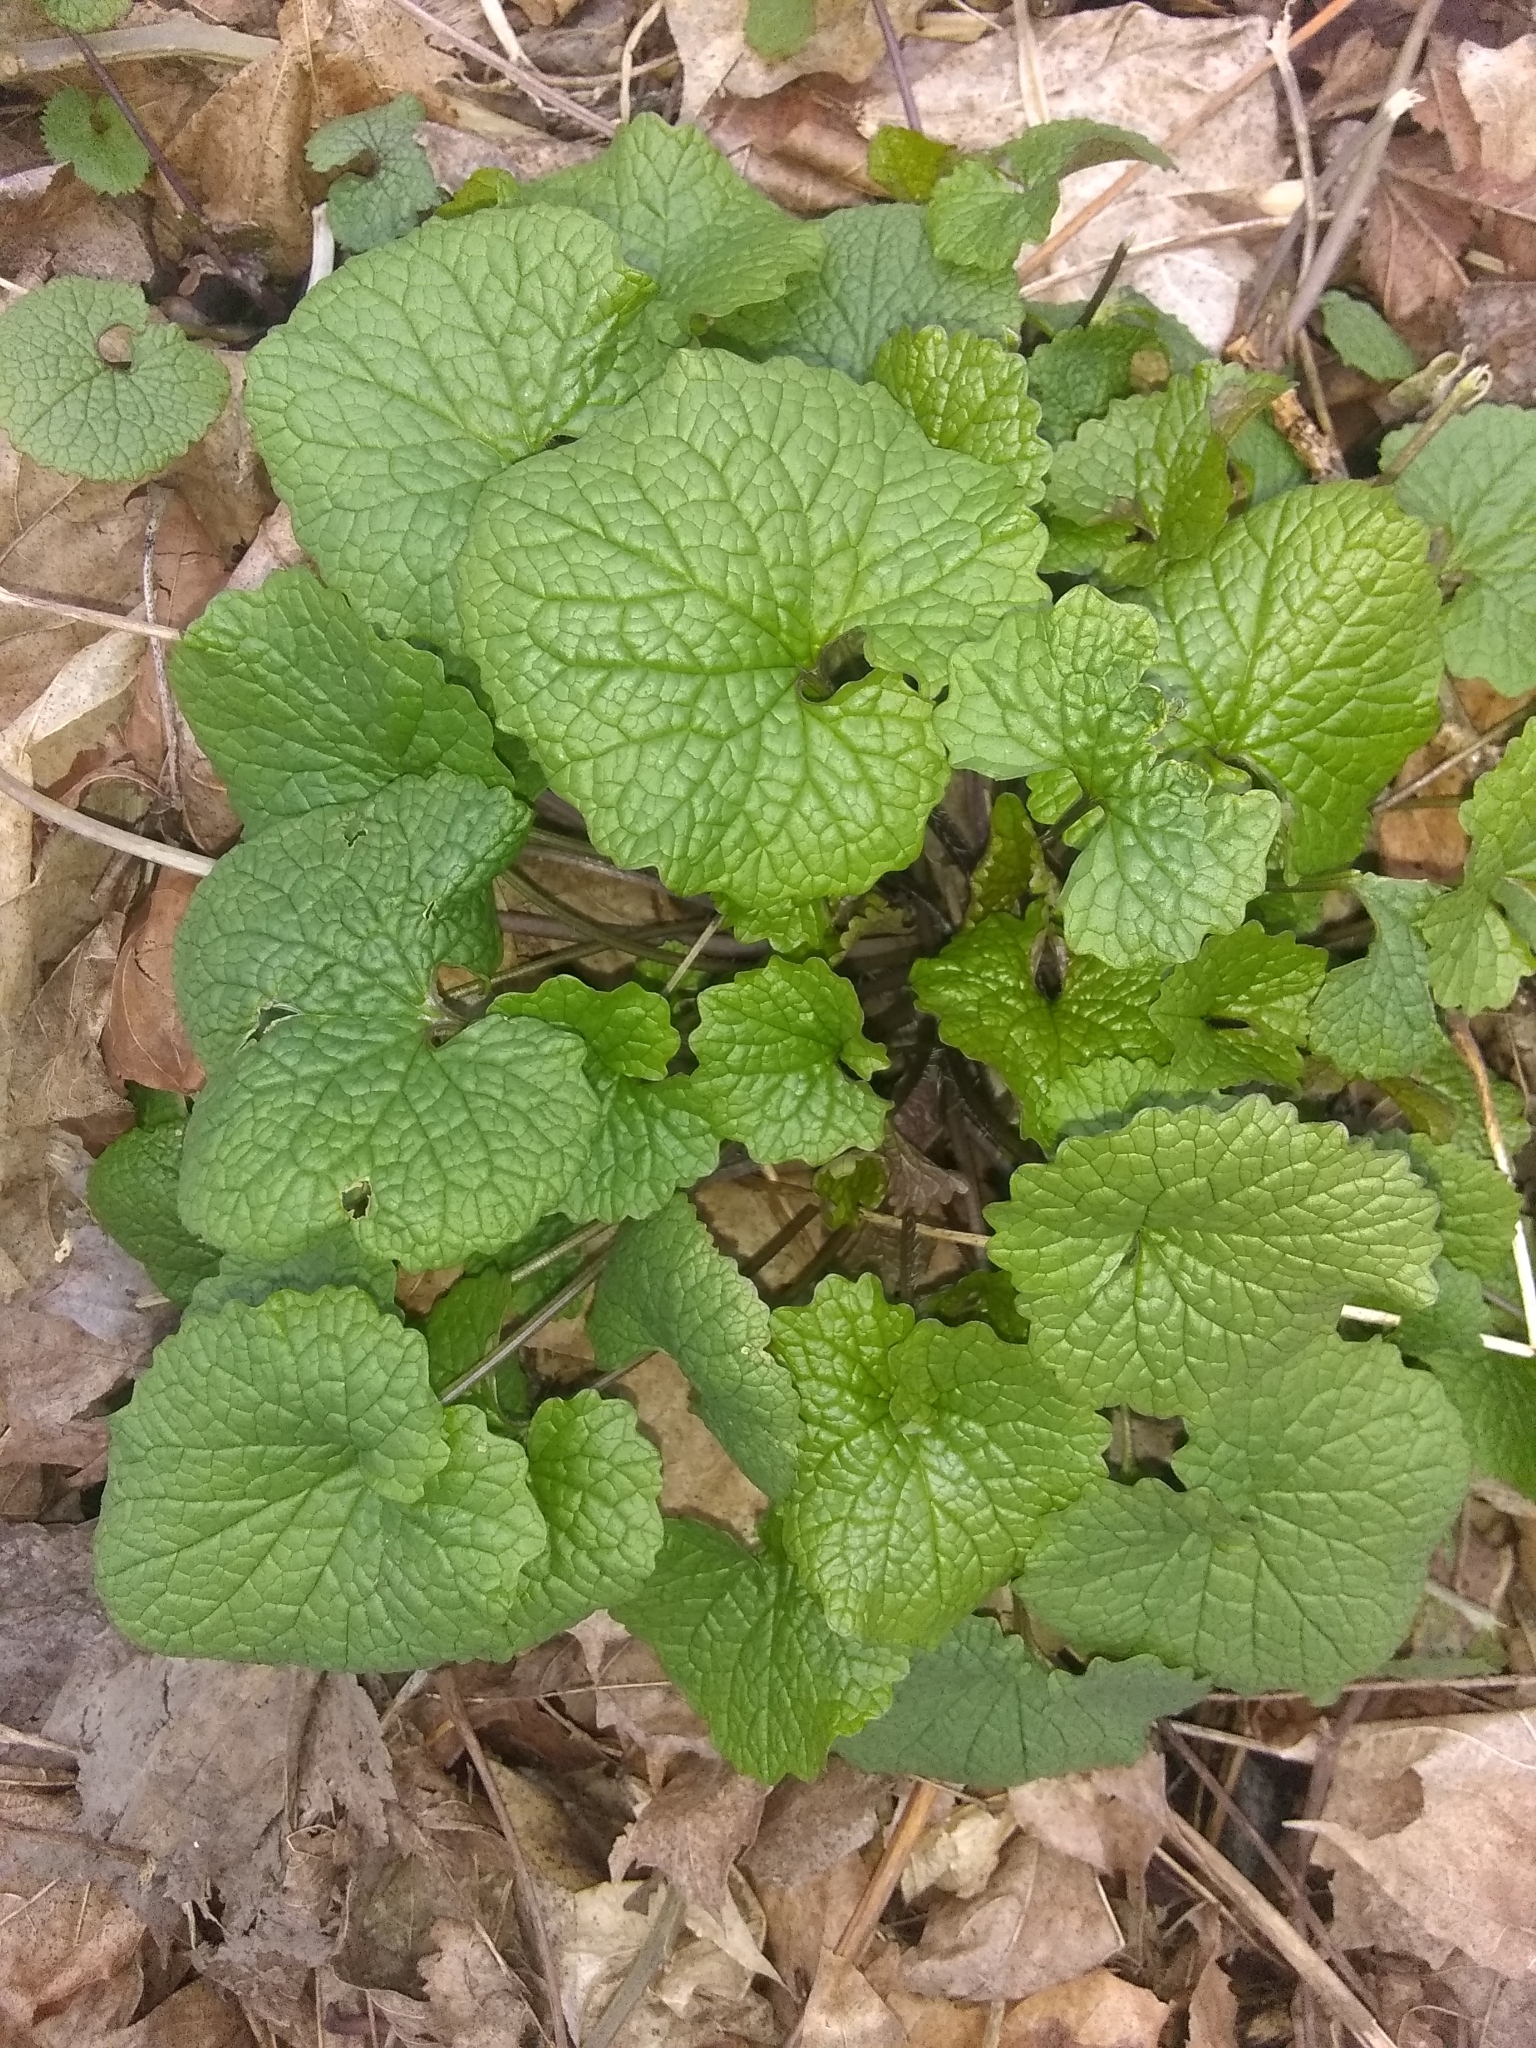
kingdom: Plantae
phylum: Tracheophyta
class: Magnoliopsida
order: Brassicales
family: Brassicaceae
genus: Alliaria
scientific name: Alliaria petiolata
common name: Garlic mustard
